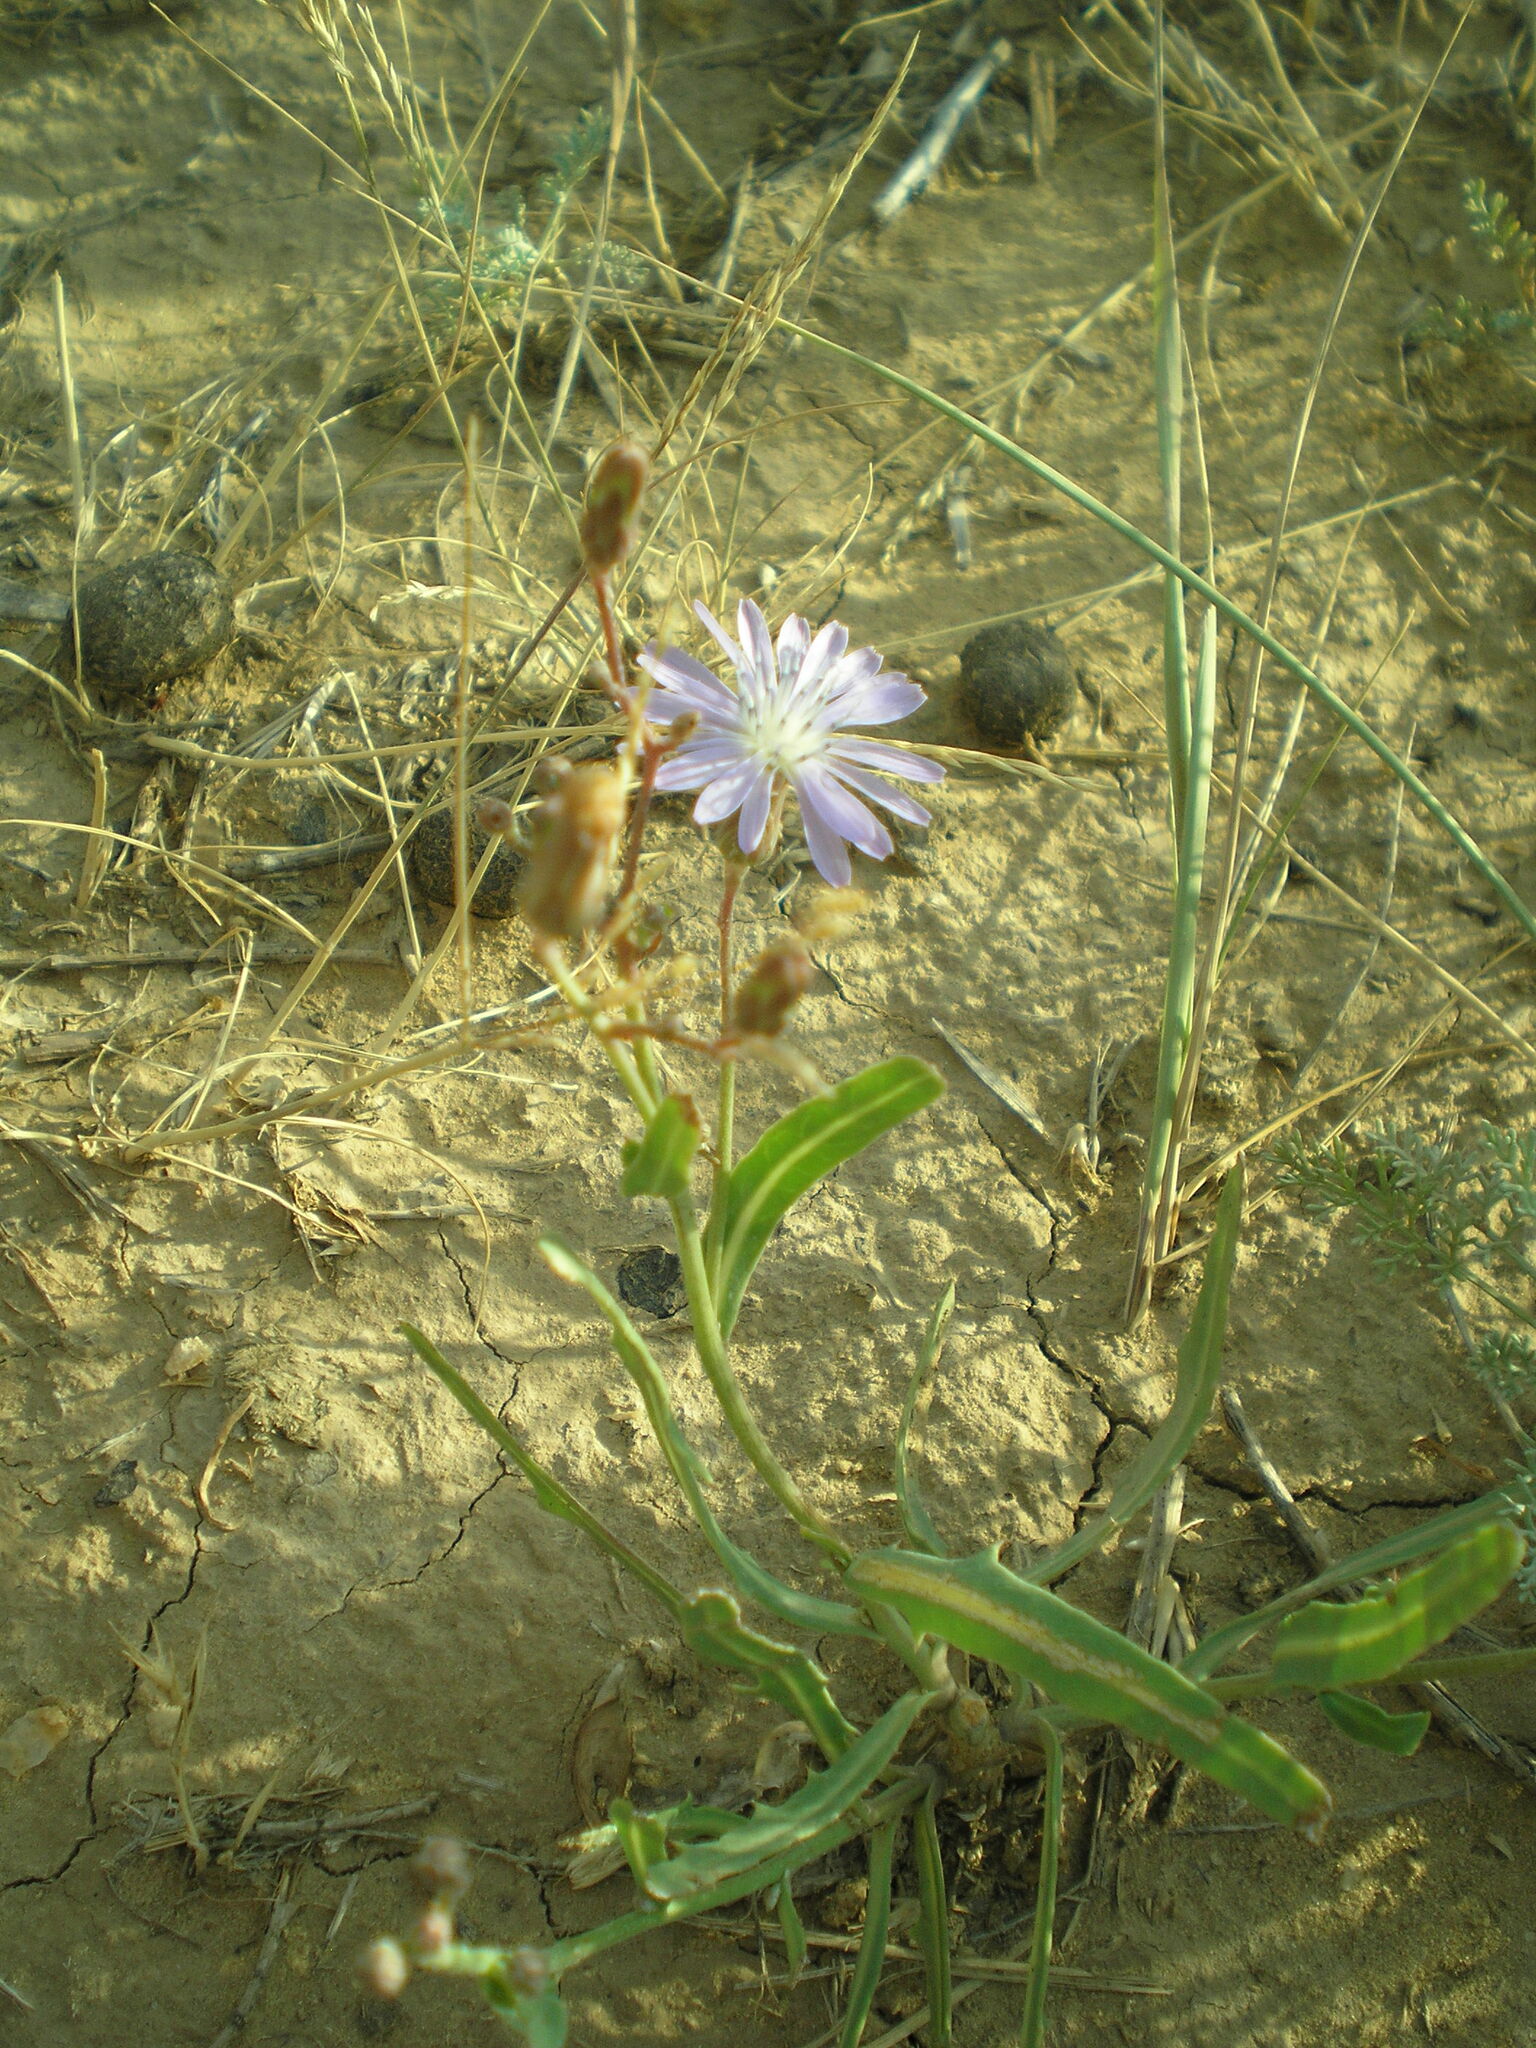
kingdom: Plantae
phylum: Tracheophyta
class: Magnoliopsida
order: Asterales
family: Asteraceae
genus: Lactuca
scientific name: Lactuca tatarica
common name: Blue lettuce
